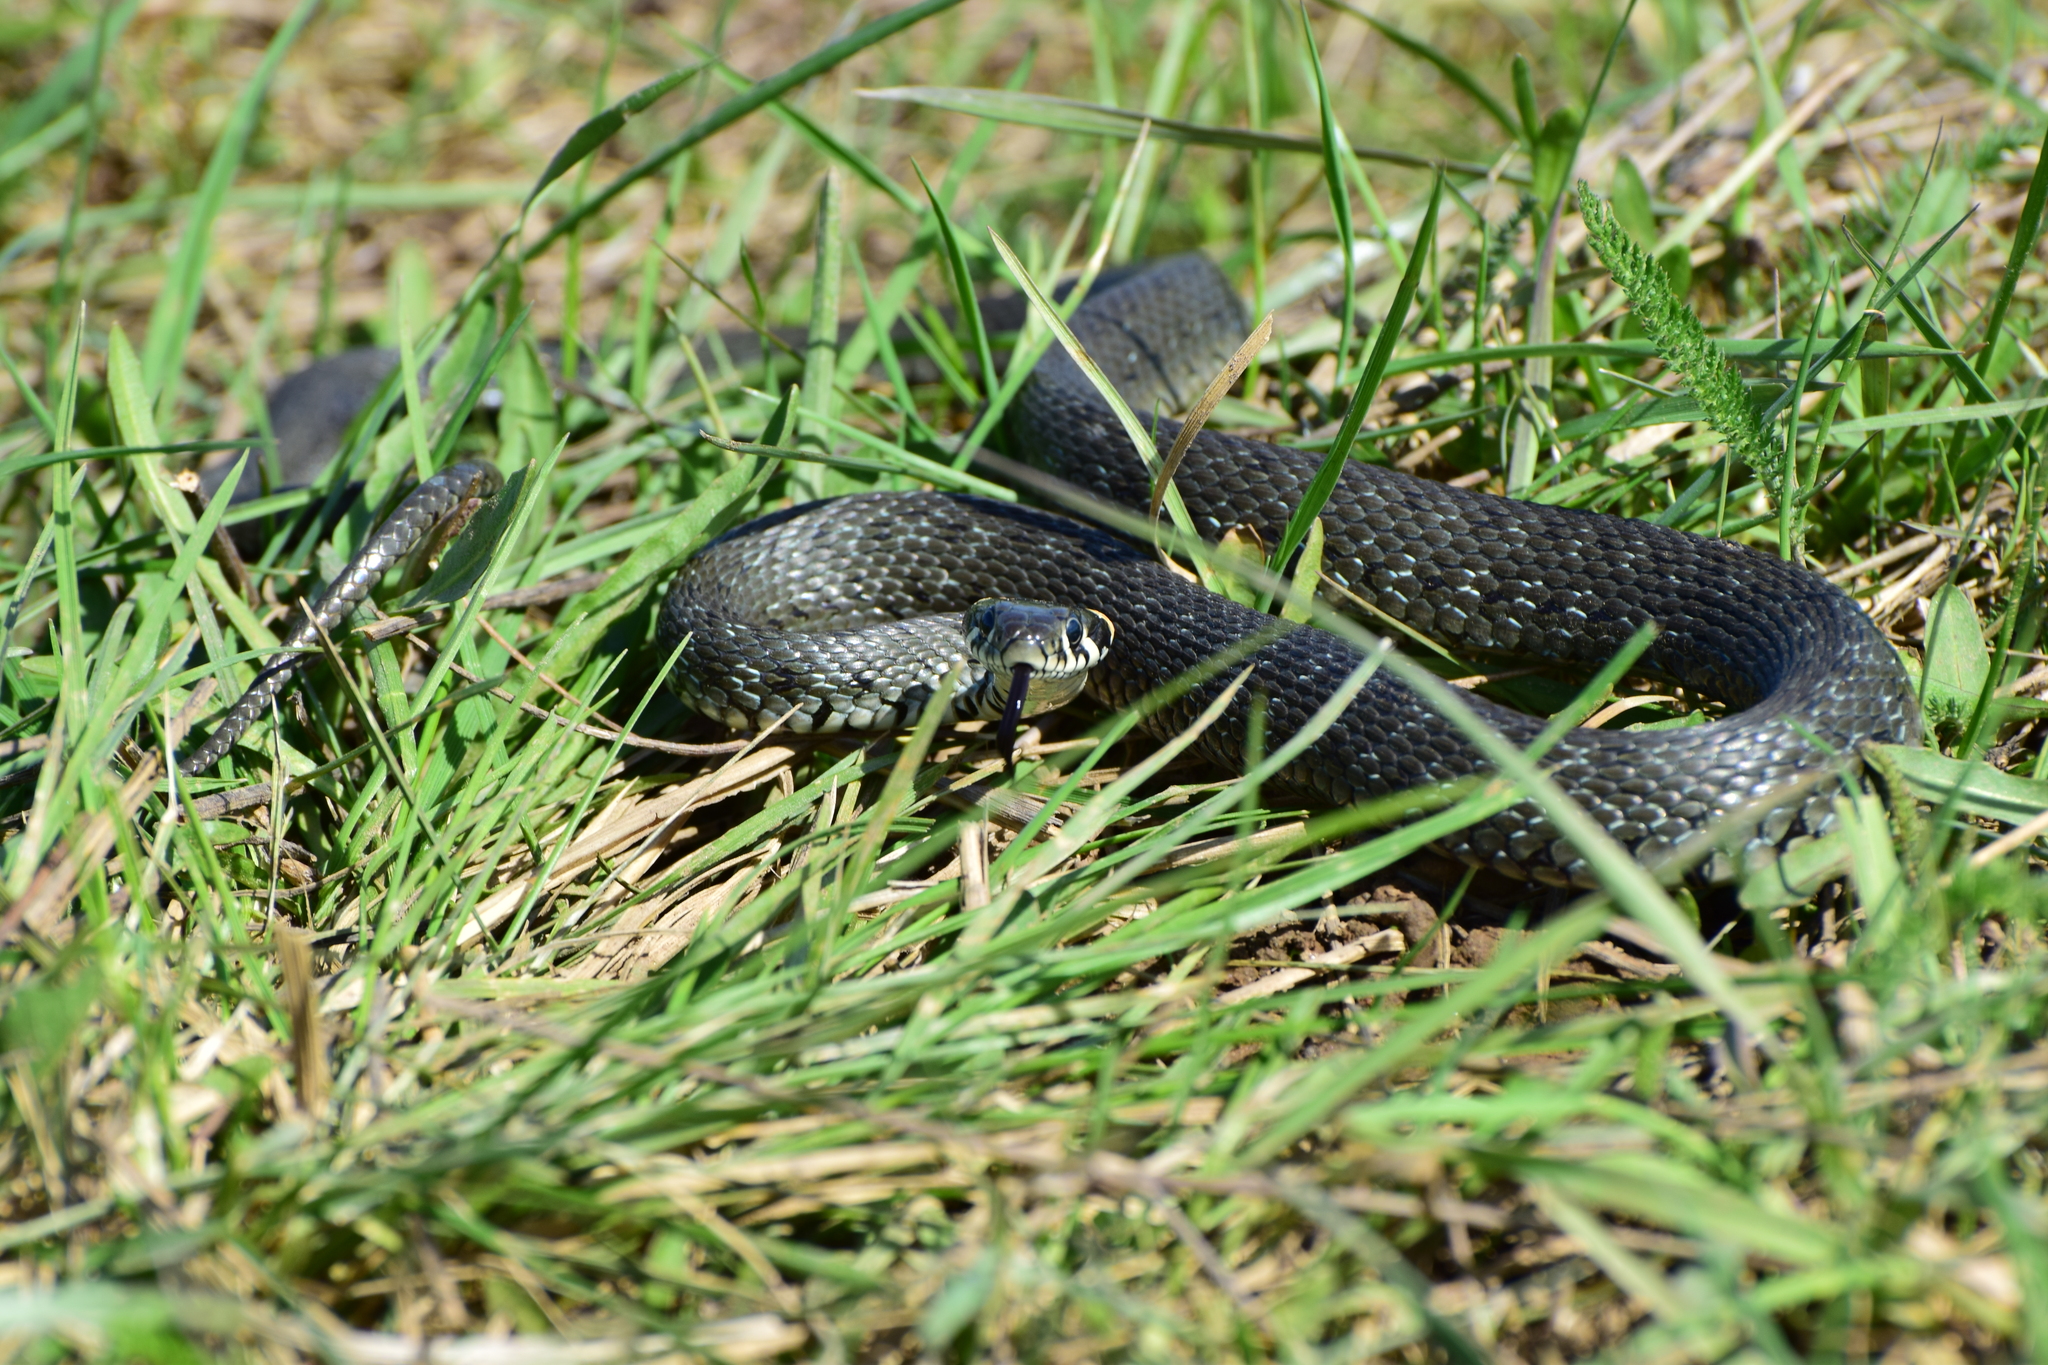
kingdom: Animalia
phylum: Chordata
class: Squamata
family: Colubridae
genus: Natrix
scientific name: Natrix natrix
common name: Grass snake
